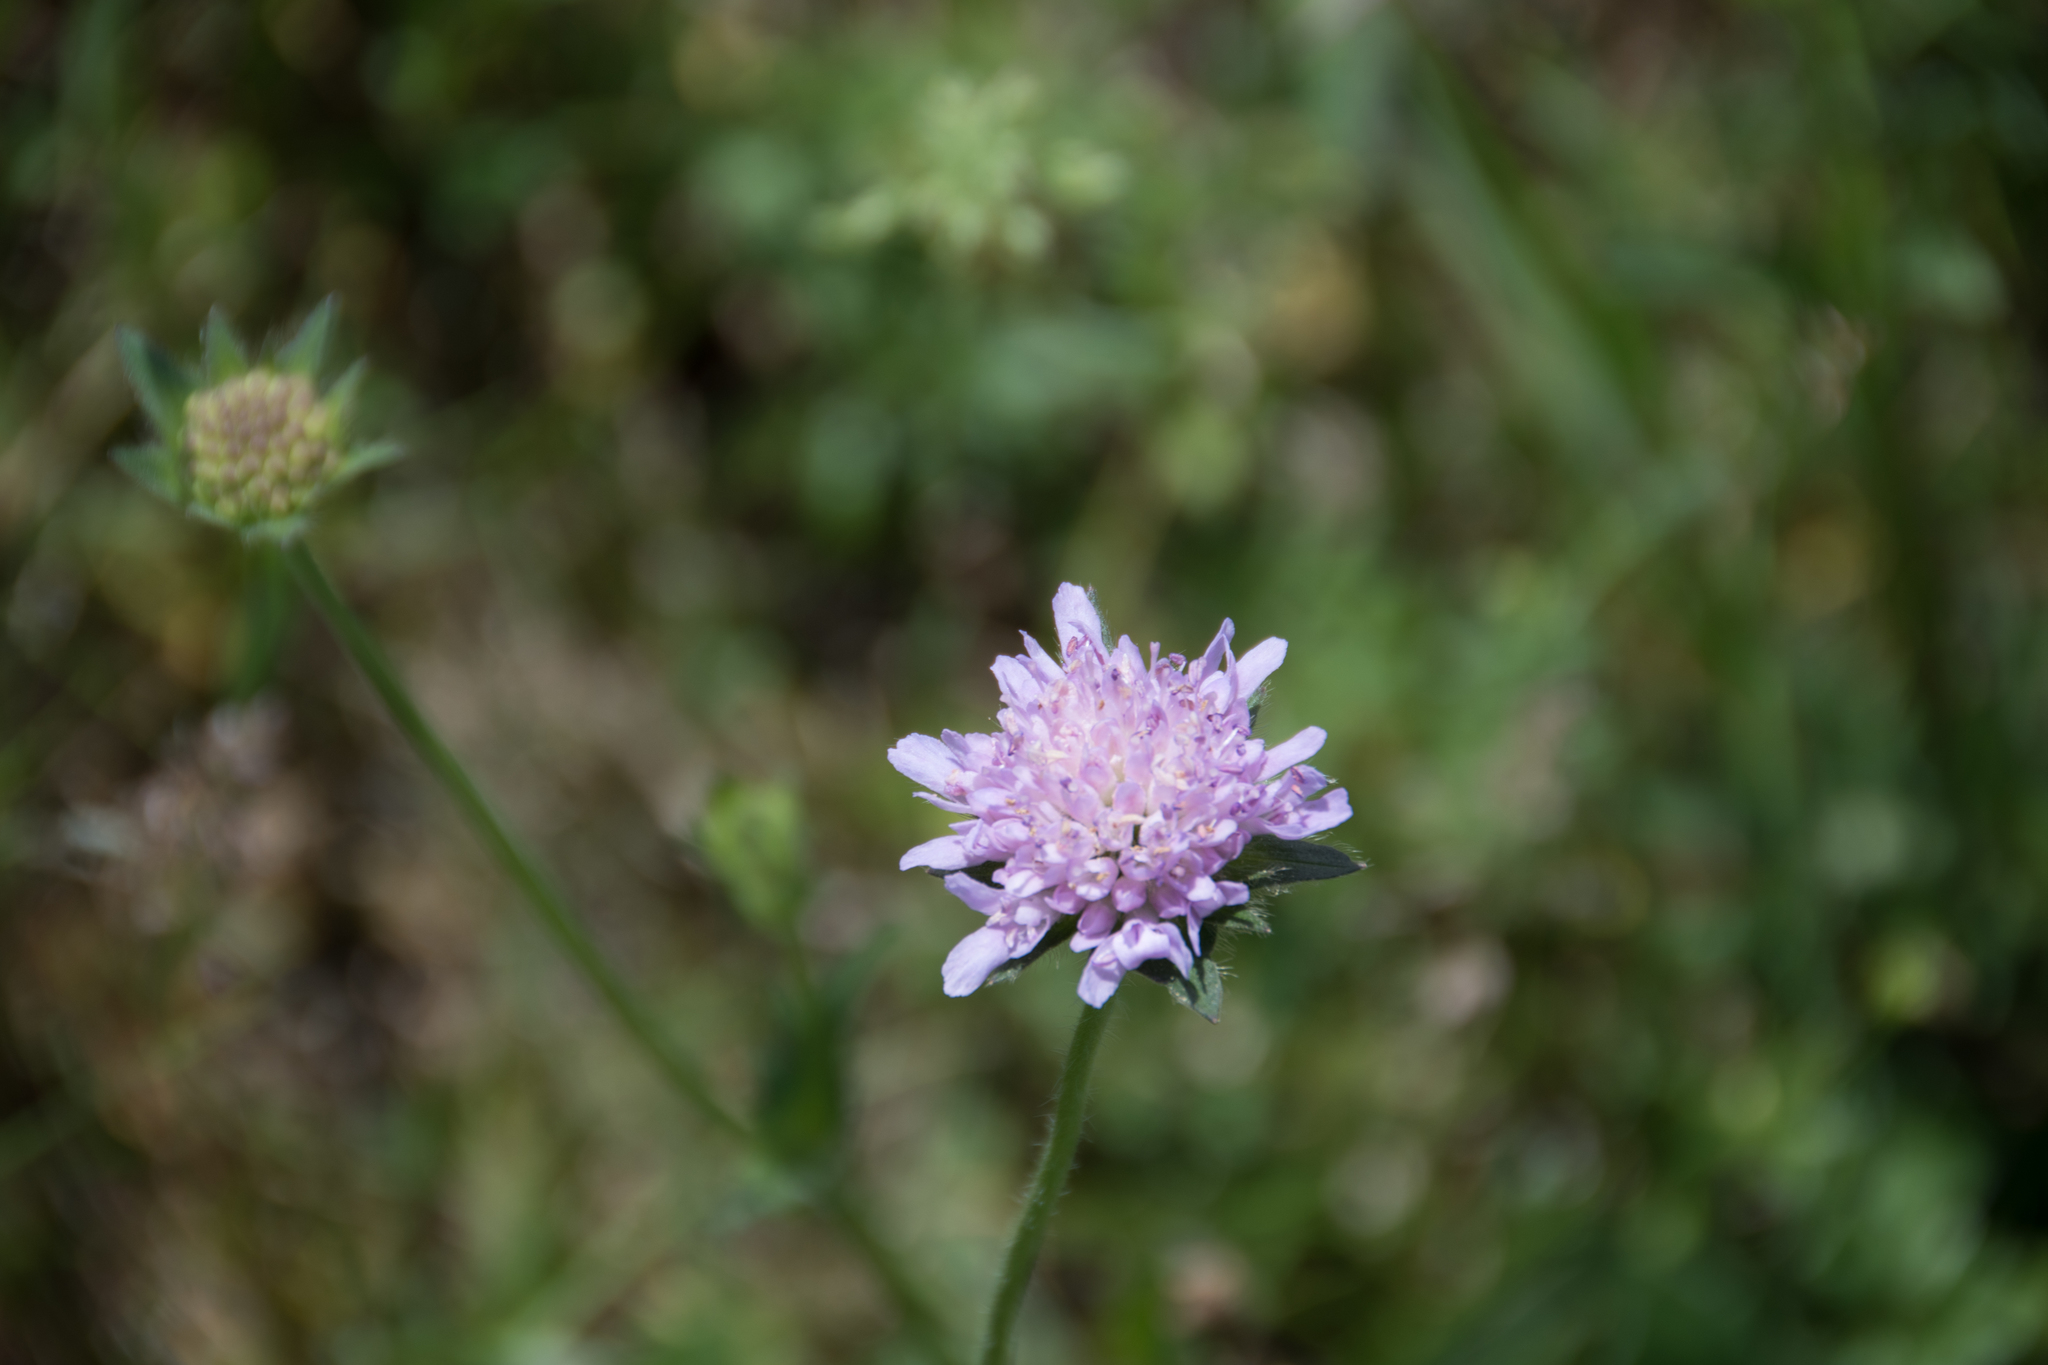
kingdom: Plantae
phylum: Tracheophyta
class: Magnoliopsida
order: Dipsacales
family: Caprifoliaceae
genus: Knautia
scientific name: Knautia arvensis
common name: Field scabiosa
